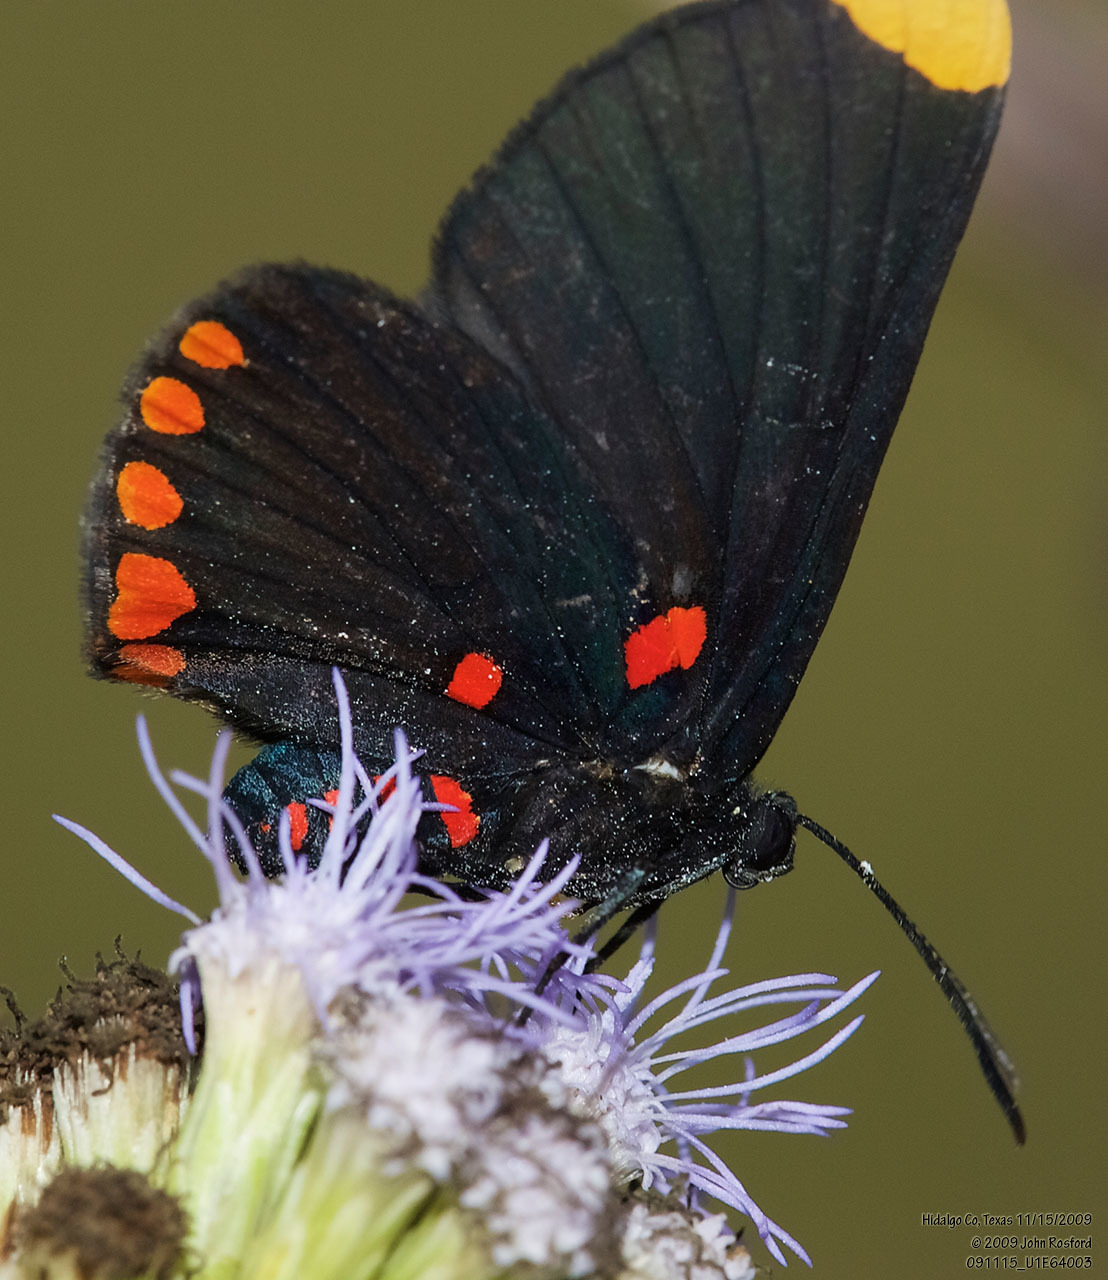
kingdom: Animalia
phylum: Arthropoda
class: Insecta
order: Lepidoptera
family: Lycaenidae
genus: Melanis
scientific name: Melanis pixe
